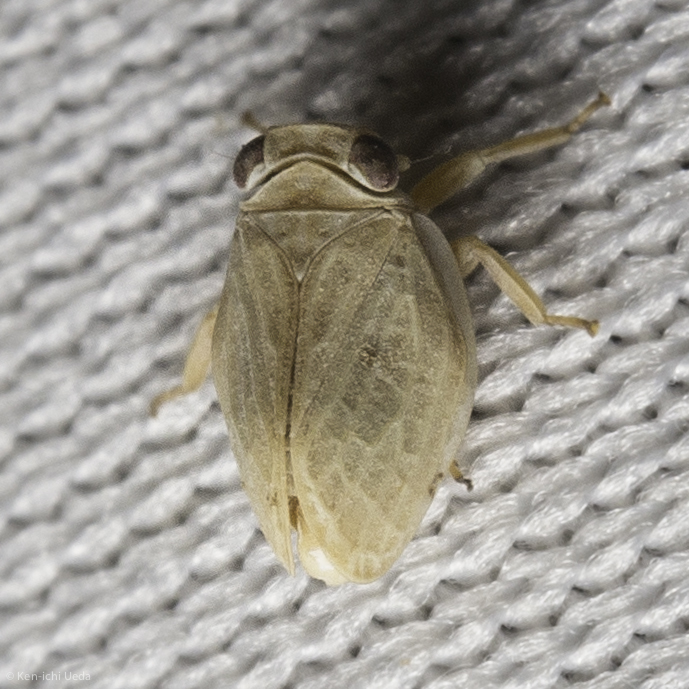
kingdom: Animalia
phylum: Arthropoda
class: Insecta
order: Hemiptera
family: Issidae
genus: Agalmatium
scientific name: Agalmatium bilobum
